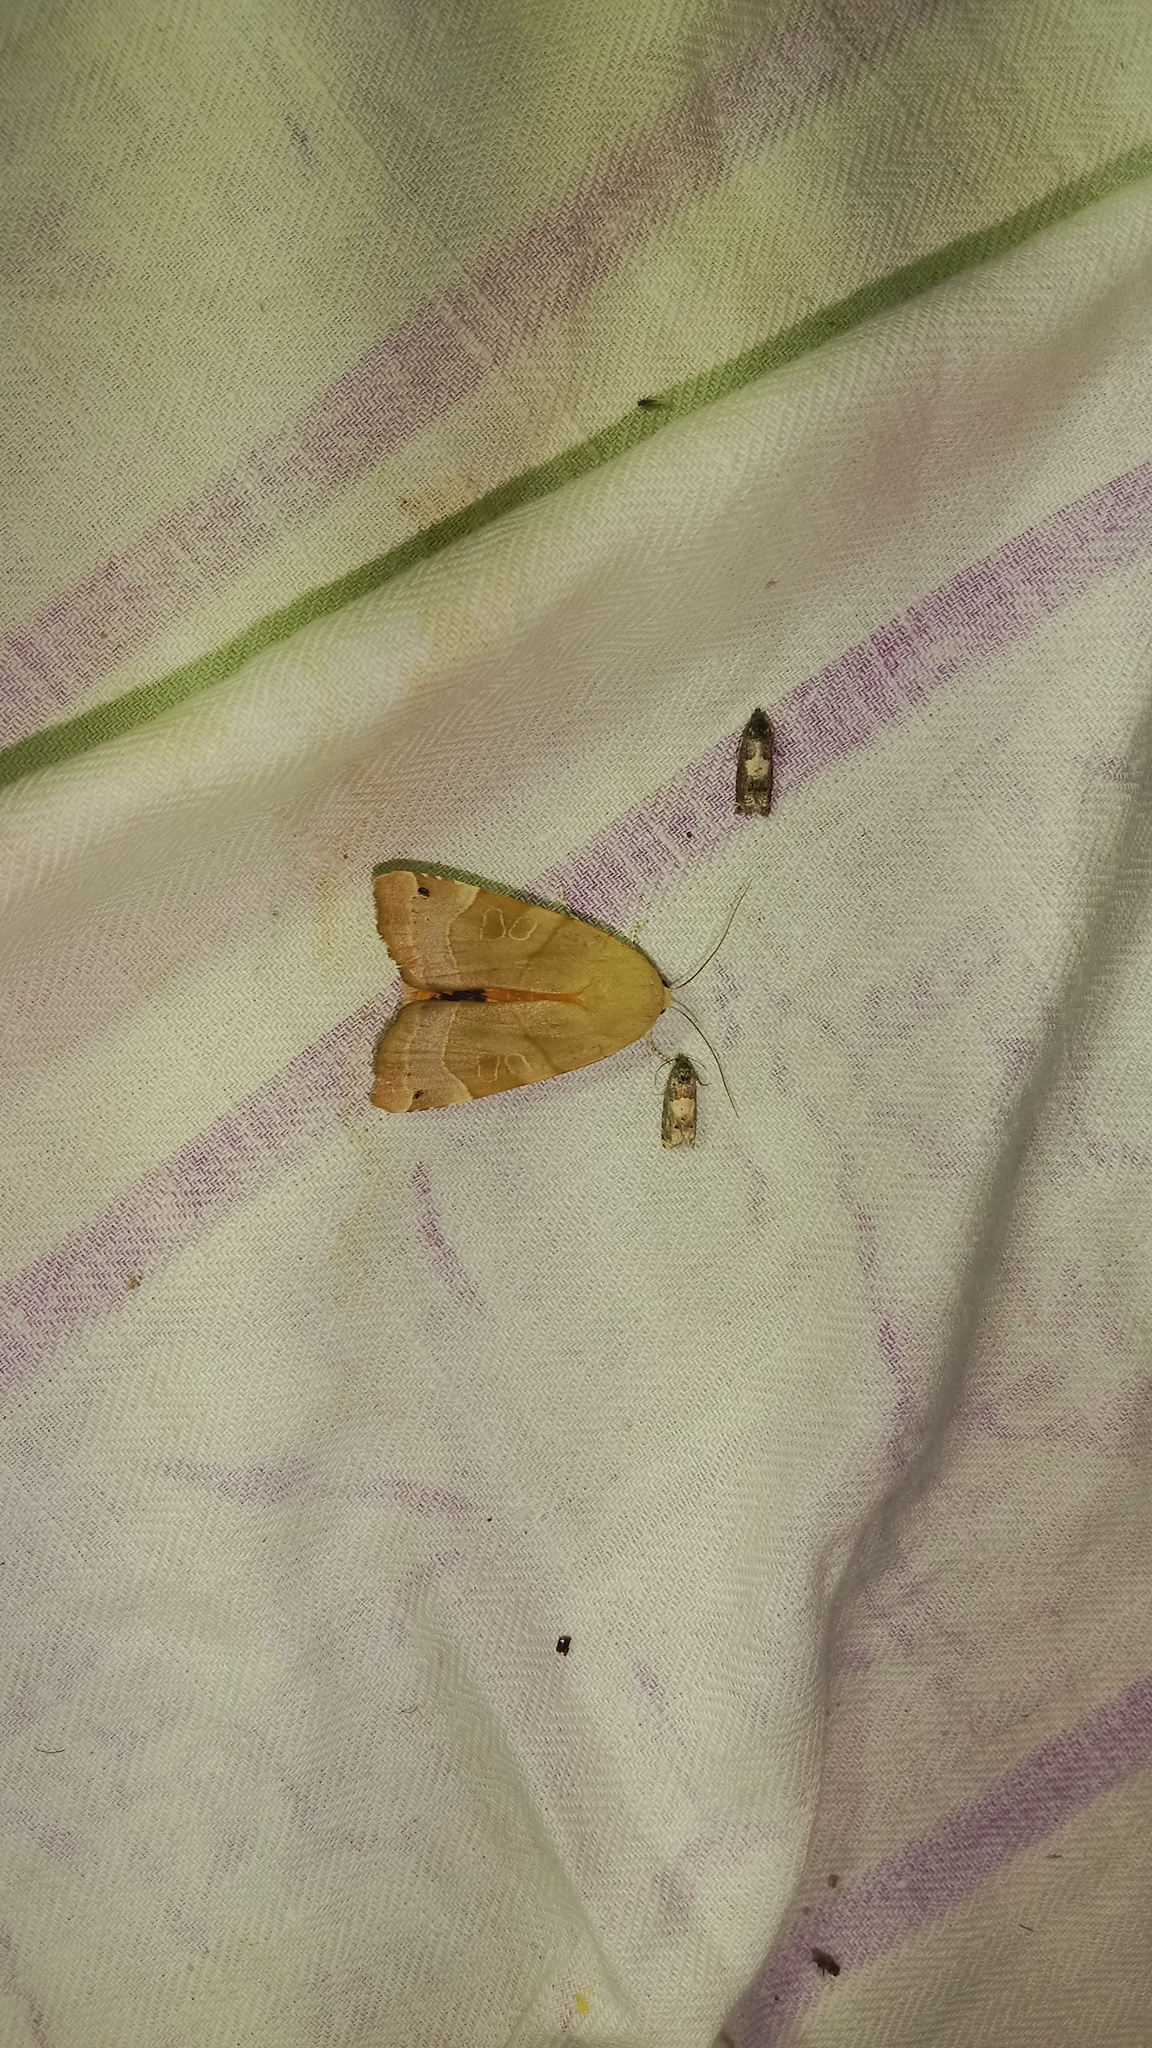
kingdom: Animalia
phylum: Arthropoda
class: Insecta
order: Lepidoptera
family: Noctuidae
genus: Noctua
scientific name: Noctua fimbriata
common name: Broad-bordered yellow underwing
